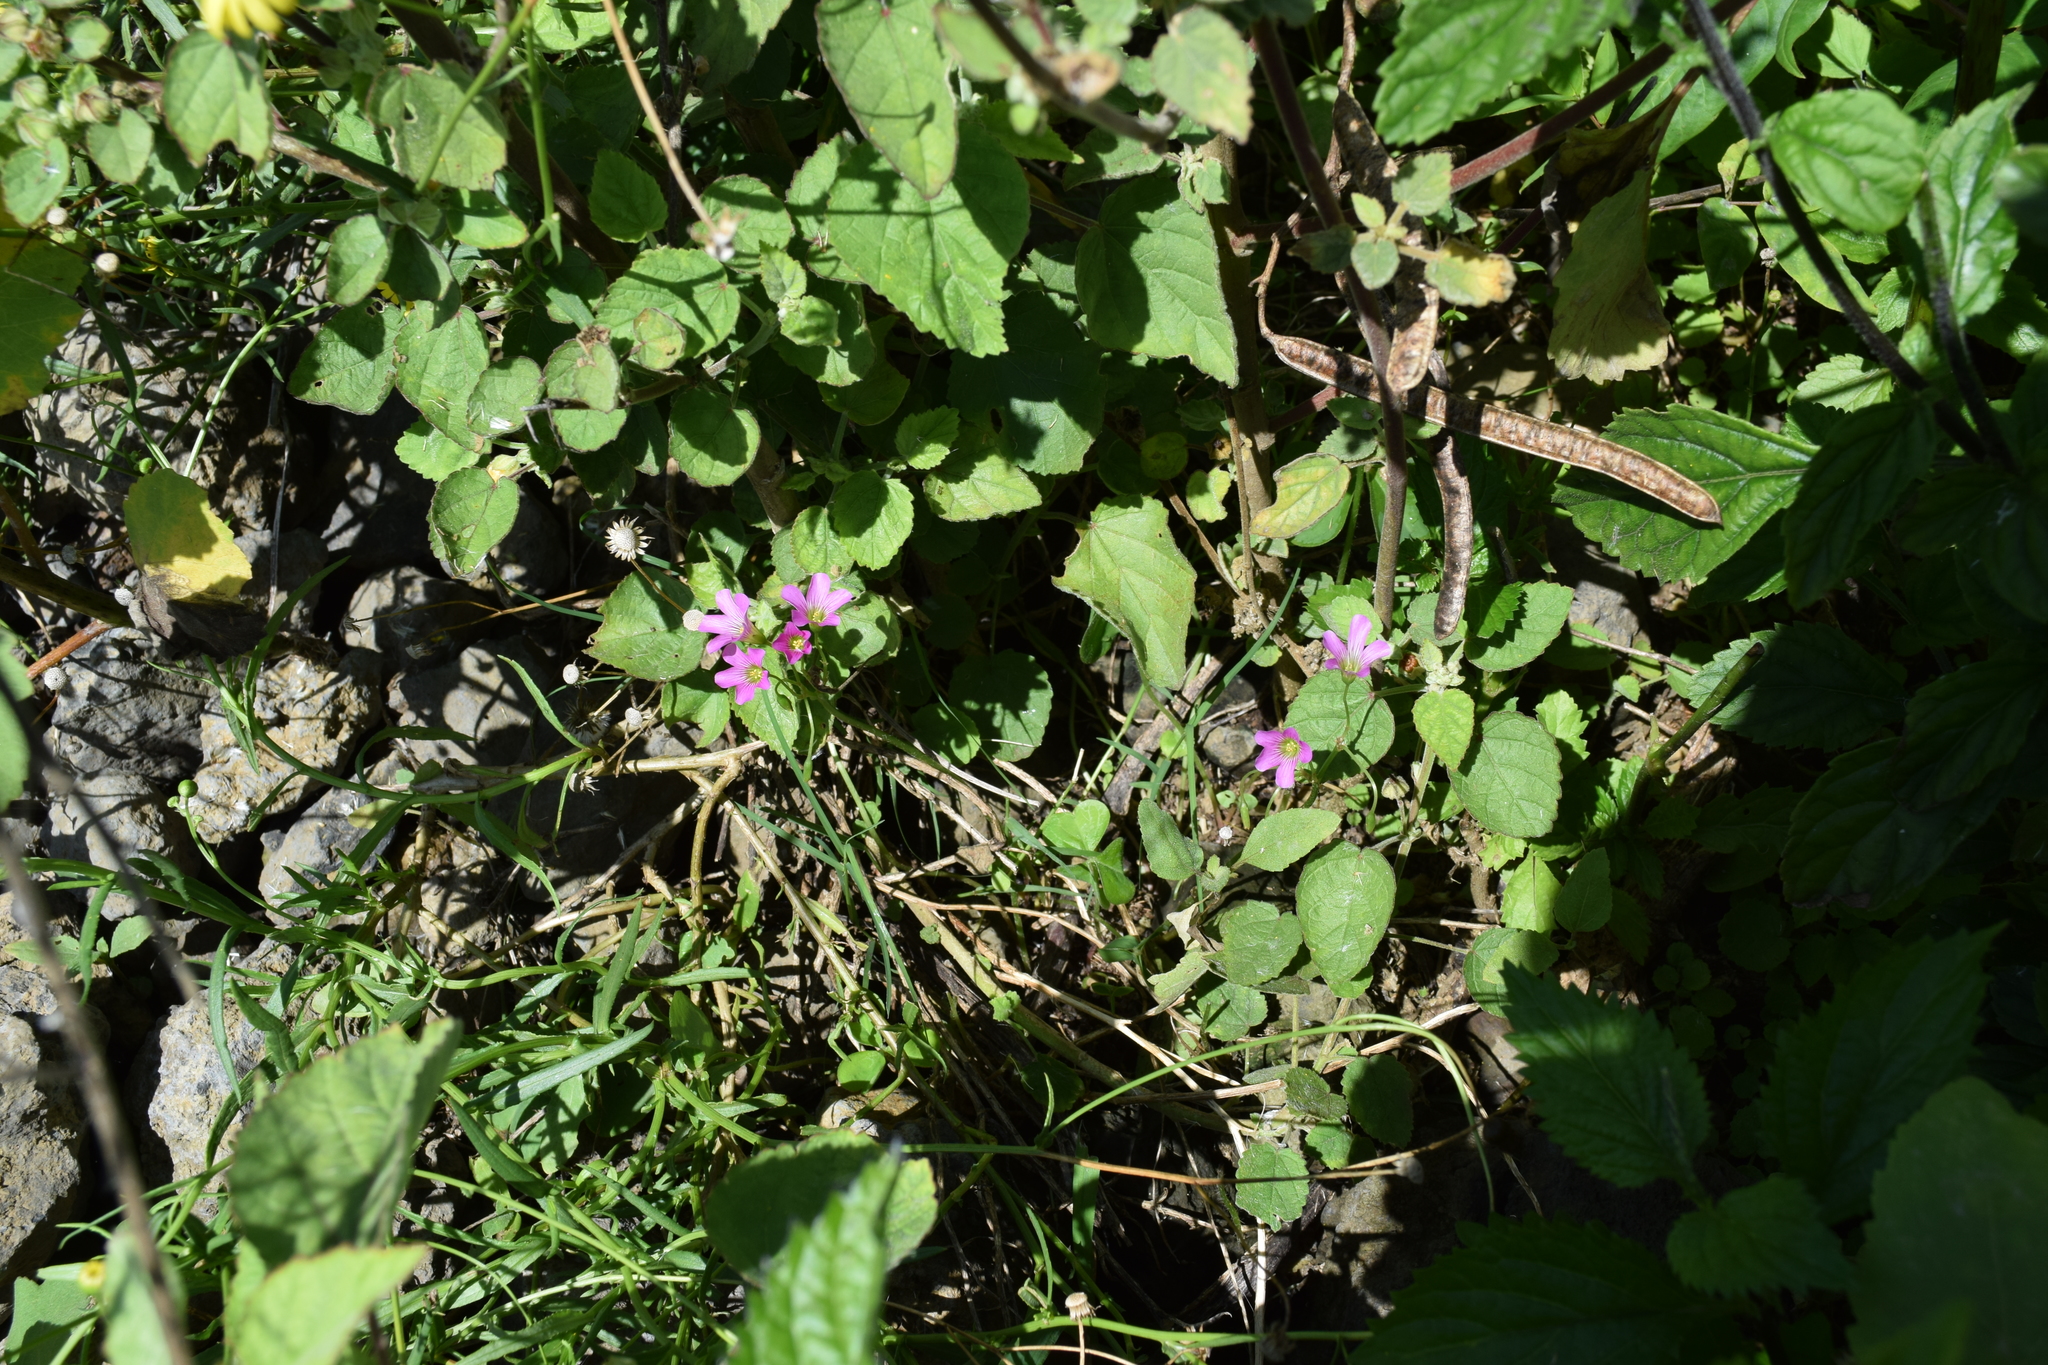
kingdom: Plantae
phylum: Tracheophyta
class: Magnoliopsida
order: Oxalidales
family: Oxalidaceae
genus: Oxalis
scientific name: Oxalis debilis
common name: Large-flowered pink-sorrel
